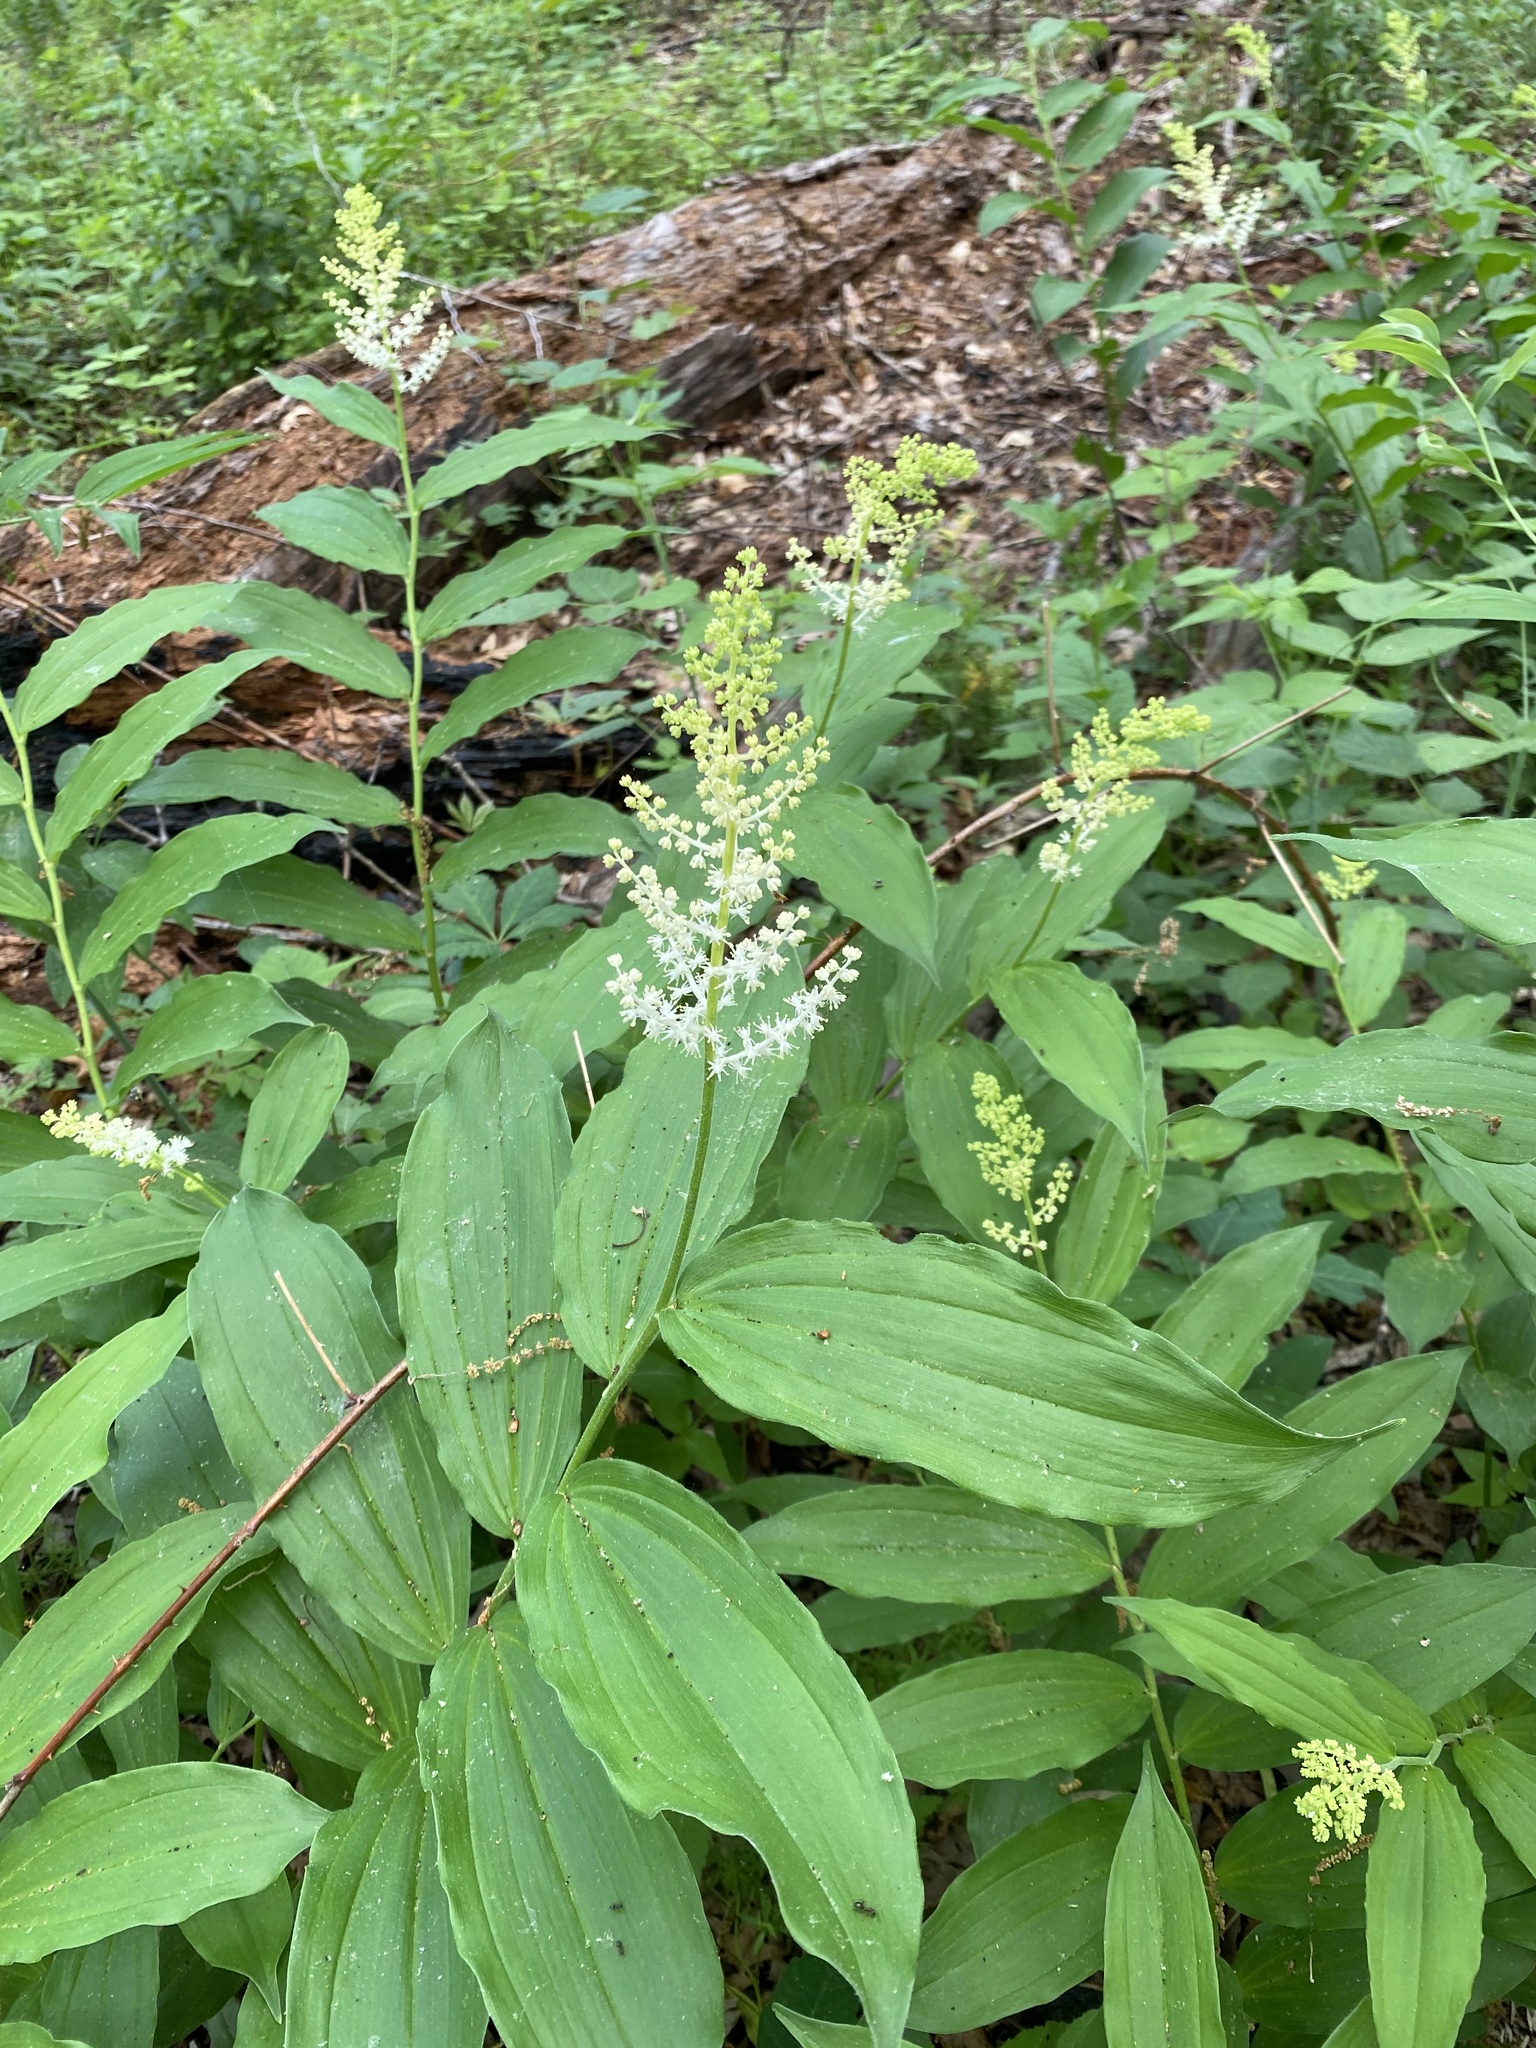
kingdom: Plantae
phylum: Tracheophyta
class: Liliopsida
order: Asparagales
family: Asparagaceae
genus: Maianthemum
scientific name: Maianthemum racemosum
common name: False spikenard
